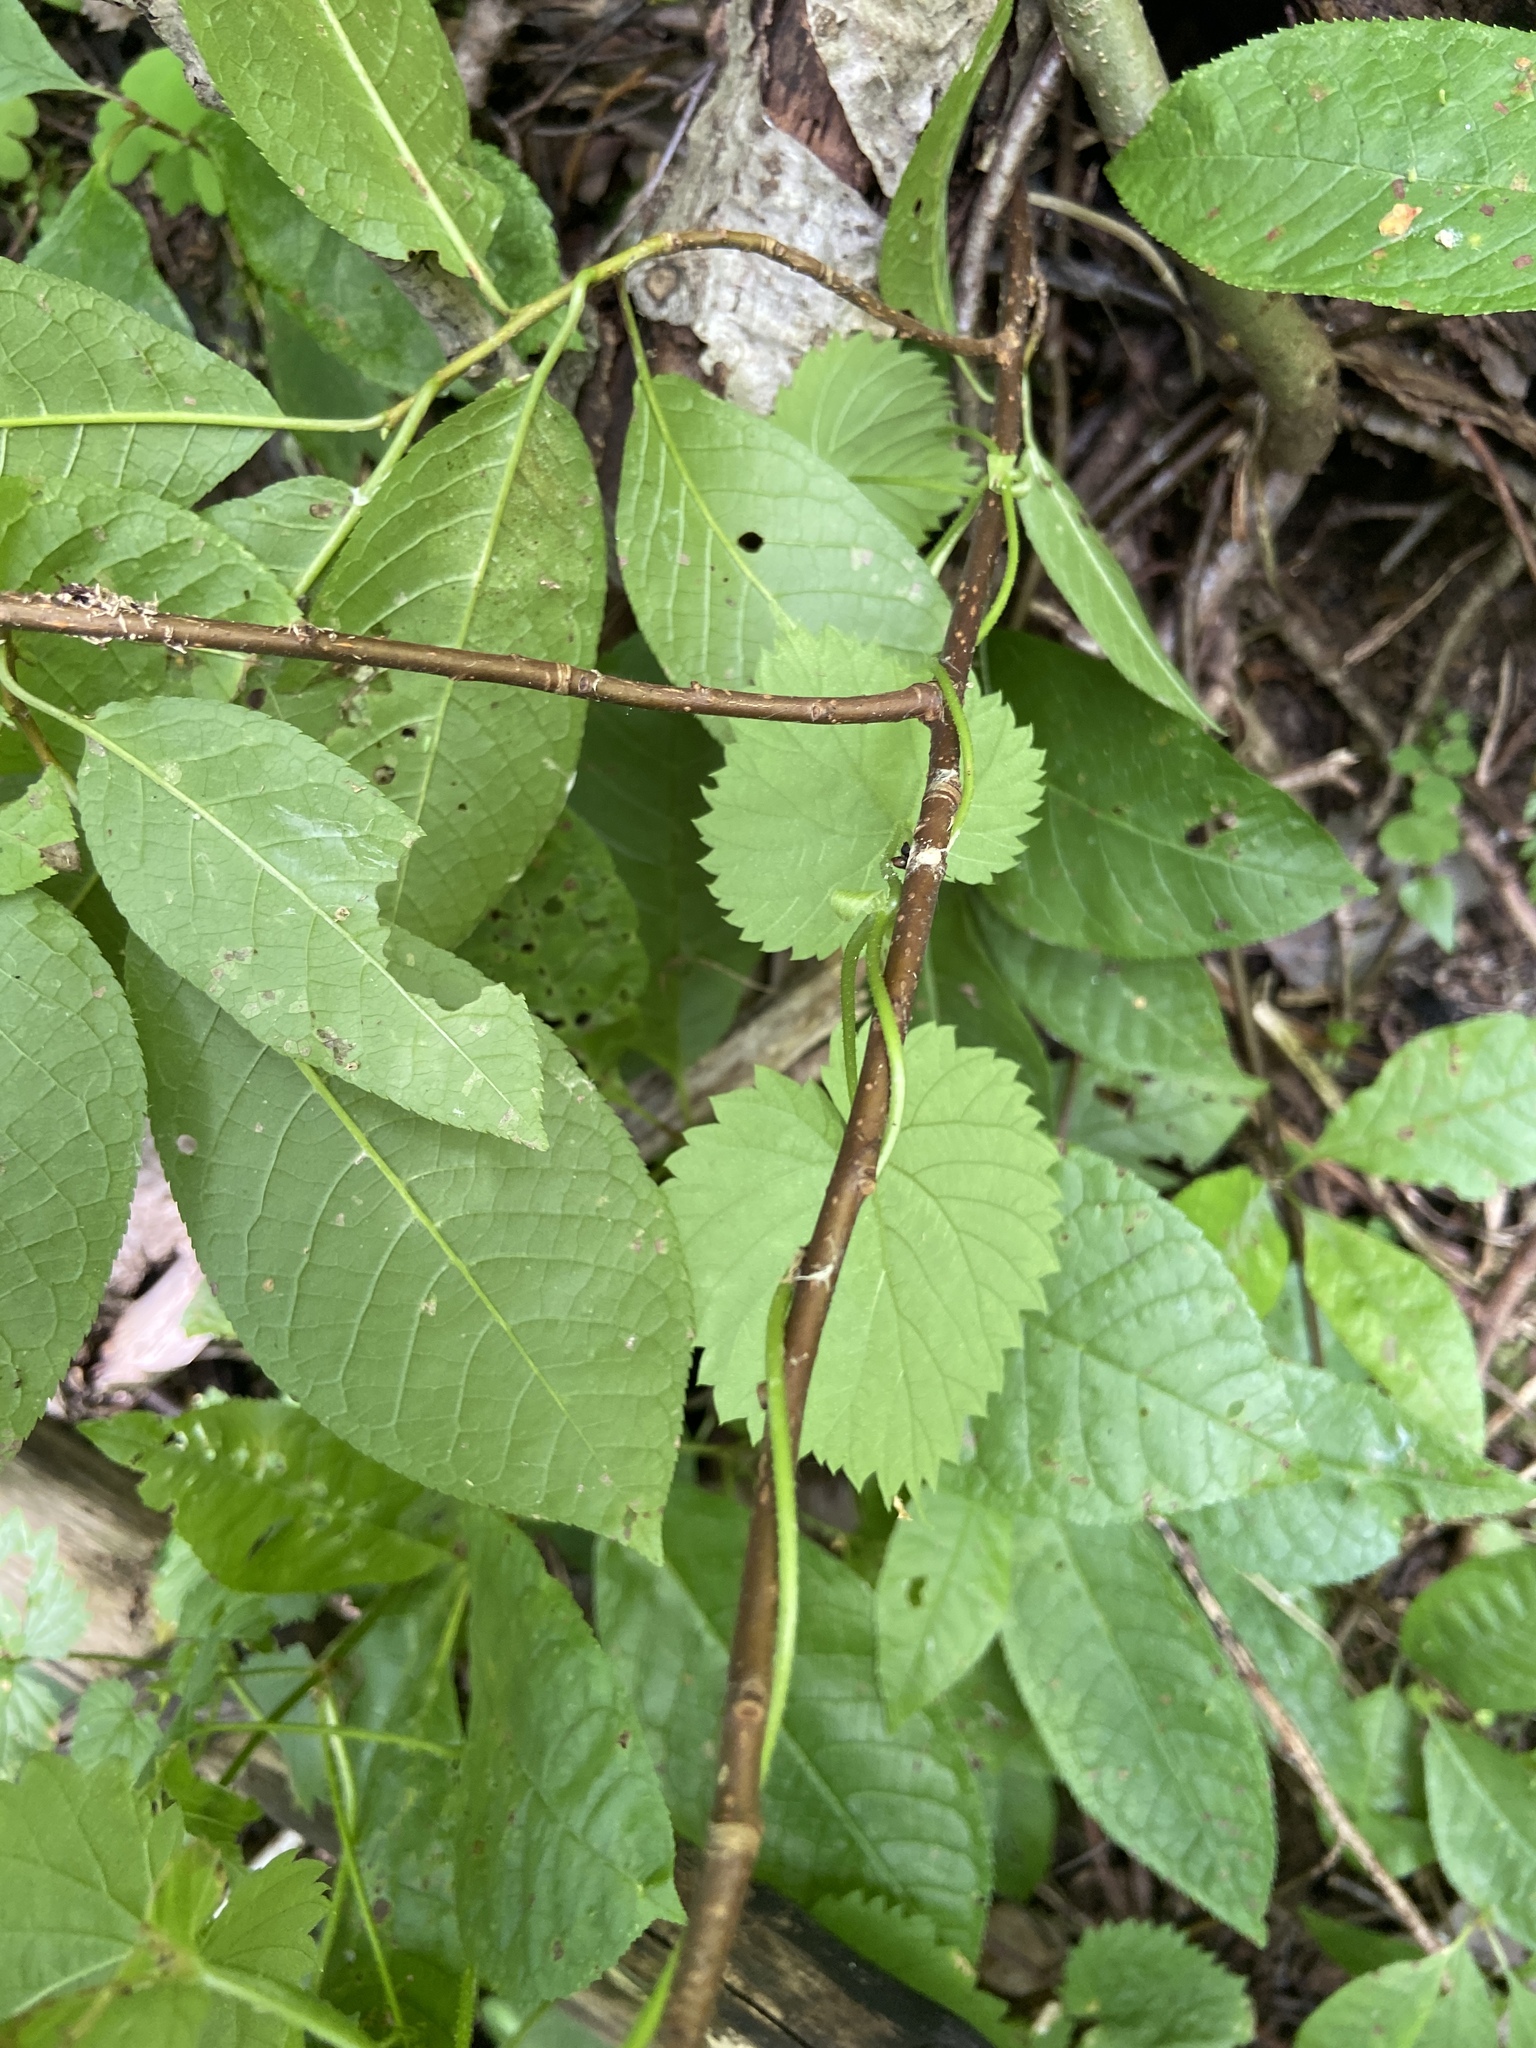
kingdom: Plantae
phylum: Tracheophyta
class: Magnoliopsida
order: Rosales
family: Cannabaceae
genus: Humulus
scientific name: Humulus lupulus
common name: Hop
